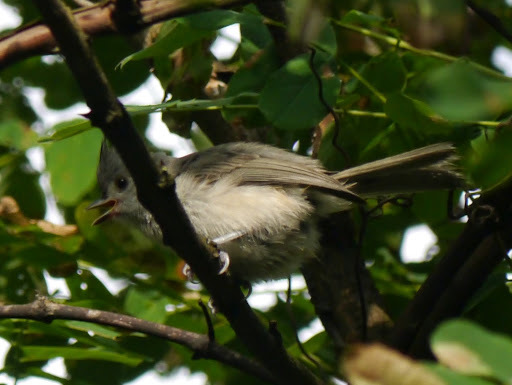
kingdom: Animalia
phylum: Chordata
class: Aves
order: Passeriformes
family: Paridae
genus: Baeolophus
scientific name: Baeolophus bicolor
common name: Tufted titmouse
